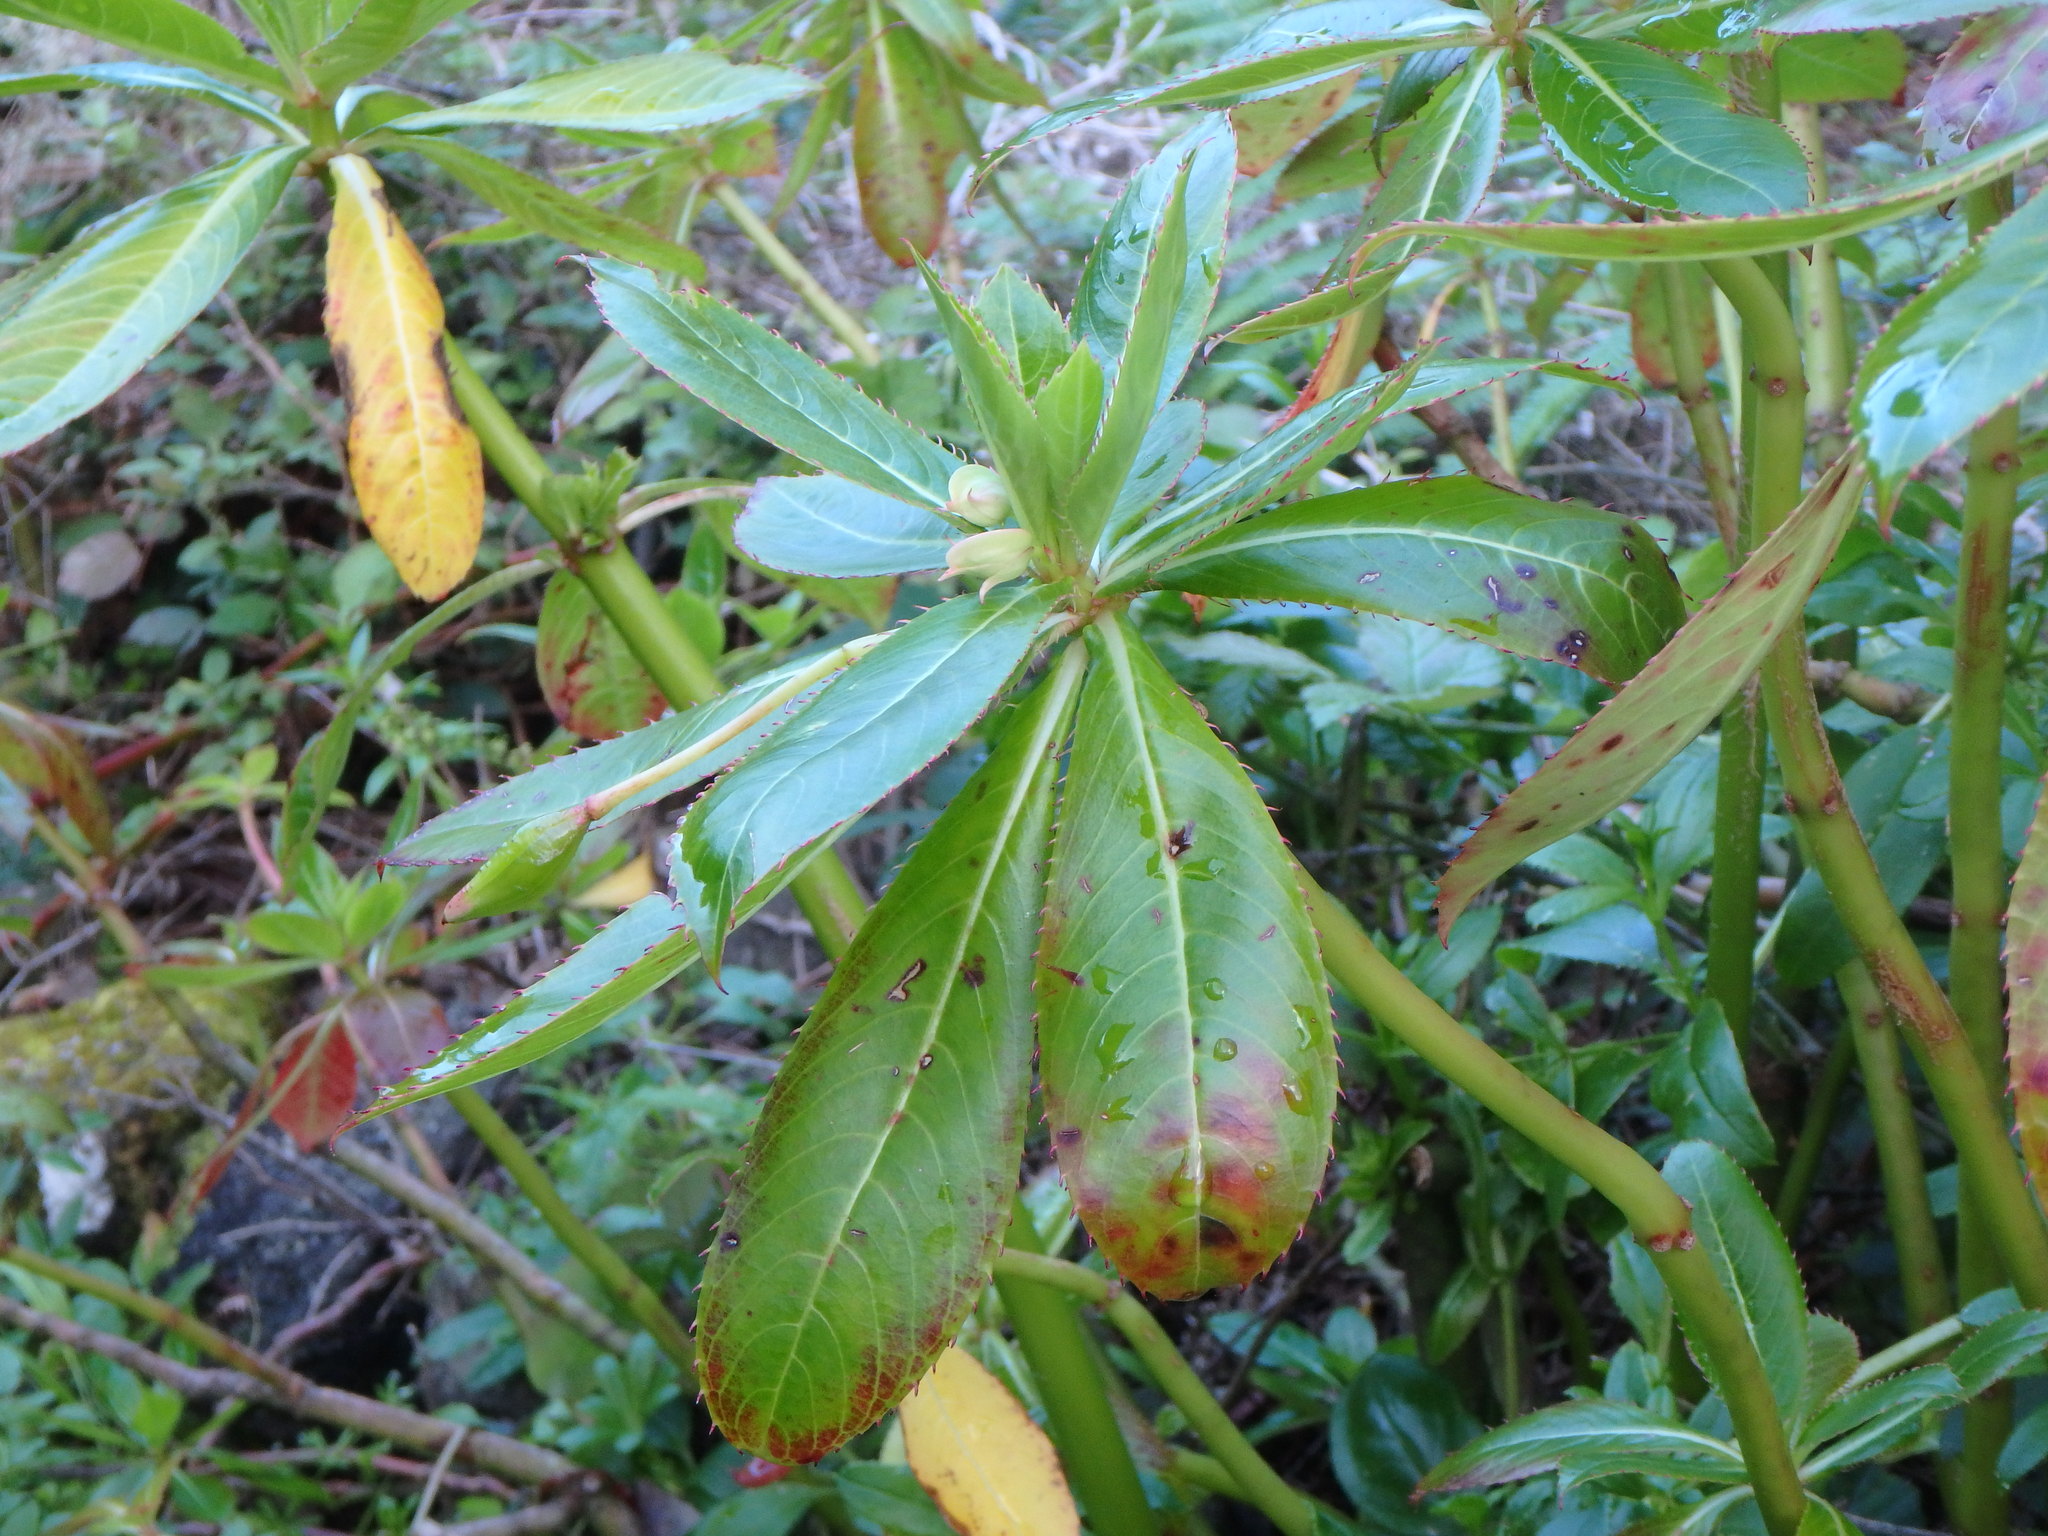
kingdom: Plantae
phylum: Tracheophyta
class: Magnoliopsida
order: Ericales
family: Balsaminaceae
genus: Impatiens
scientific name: Impatiens sodenii
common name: Oliver's touch-me-not
